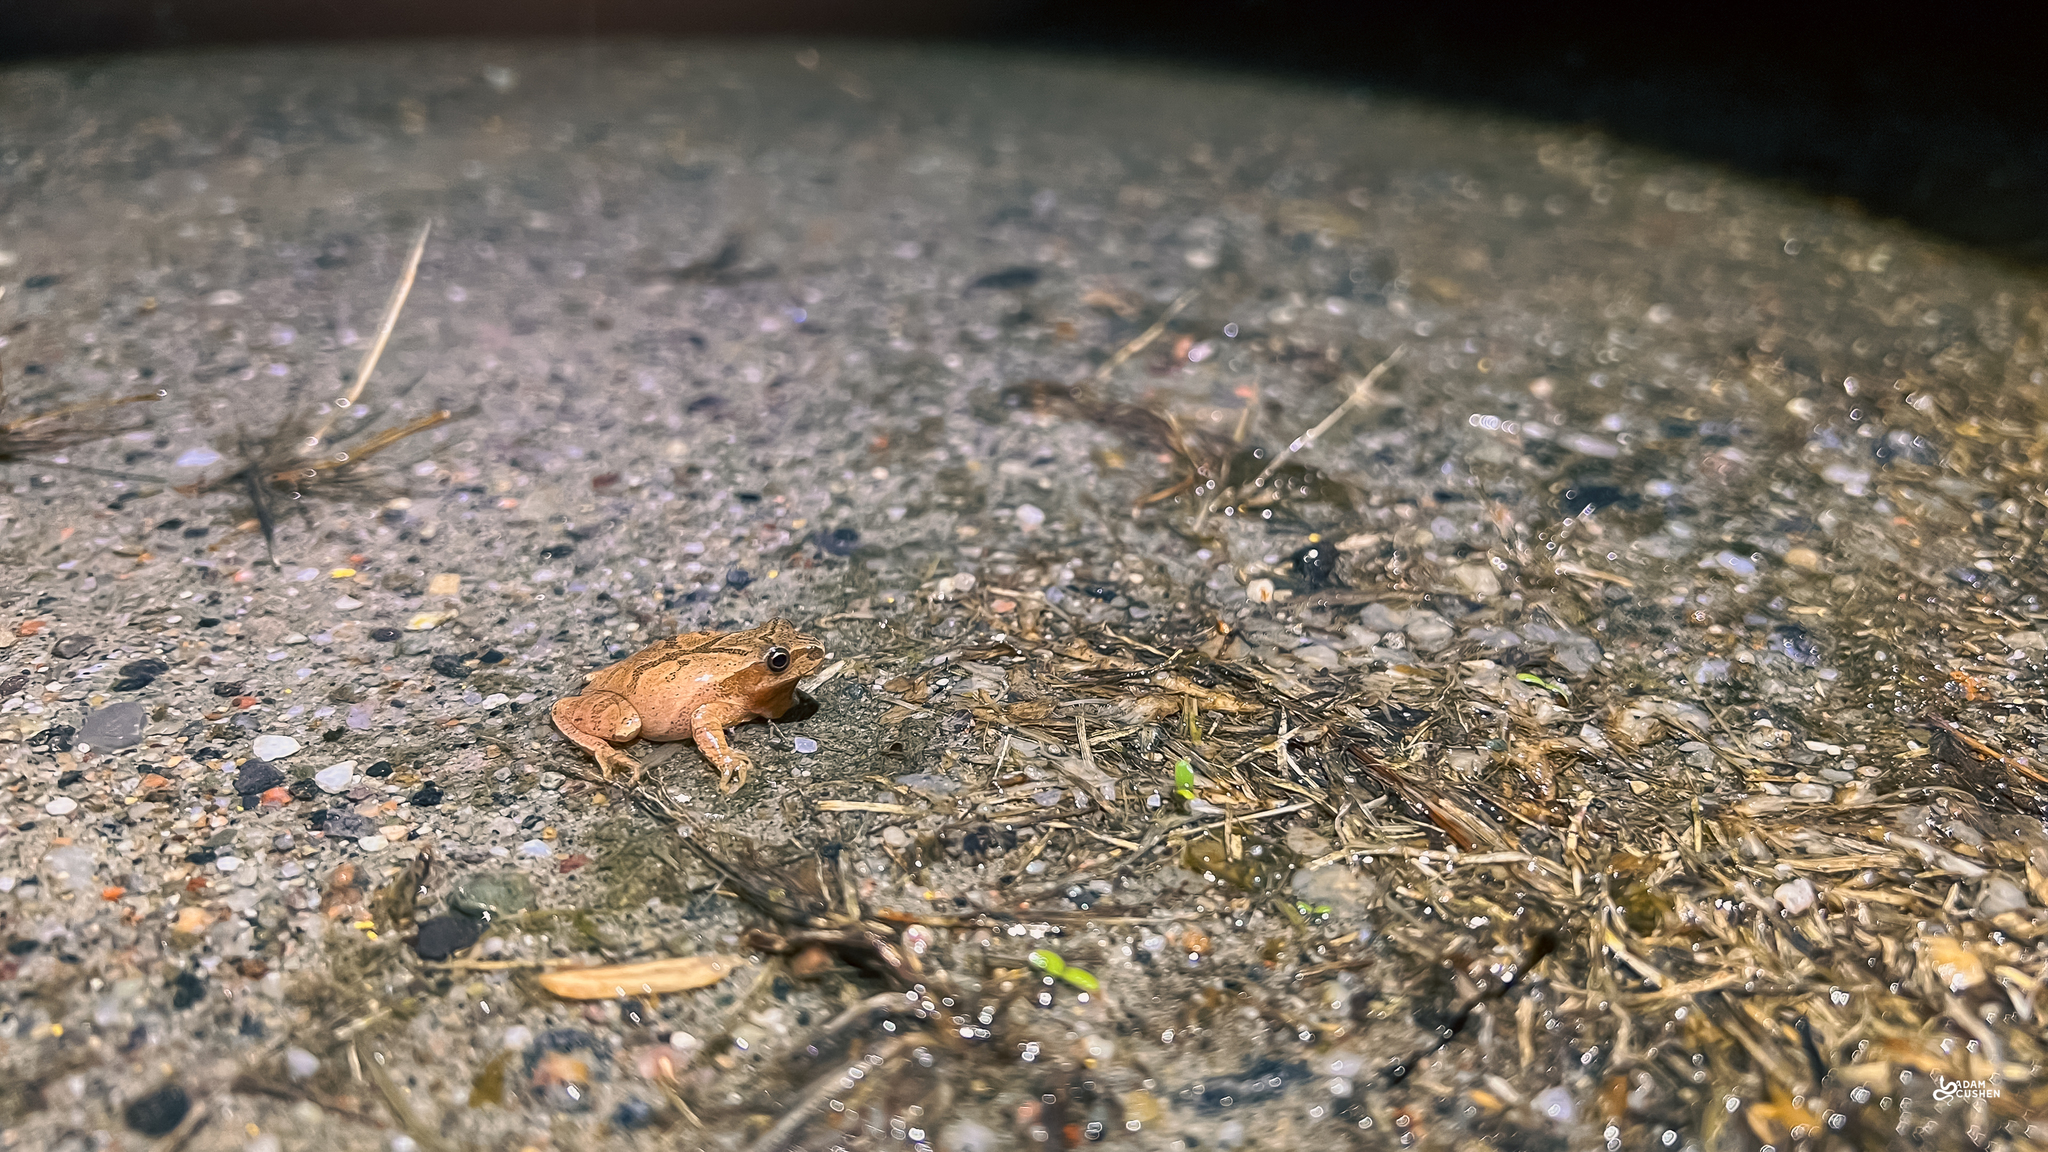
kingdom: Animalia
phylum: Chordata
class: Amphibia
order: Anura
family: Hylidae
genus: Pseudacris
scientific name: Pseudacris crucifer
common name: Spring peeper
